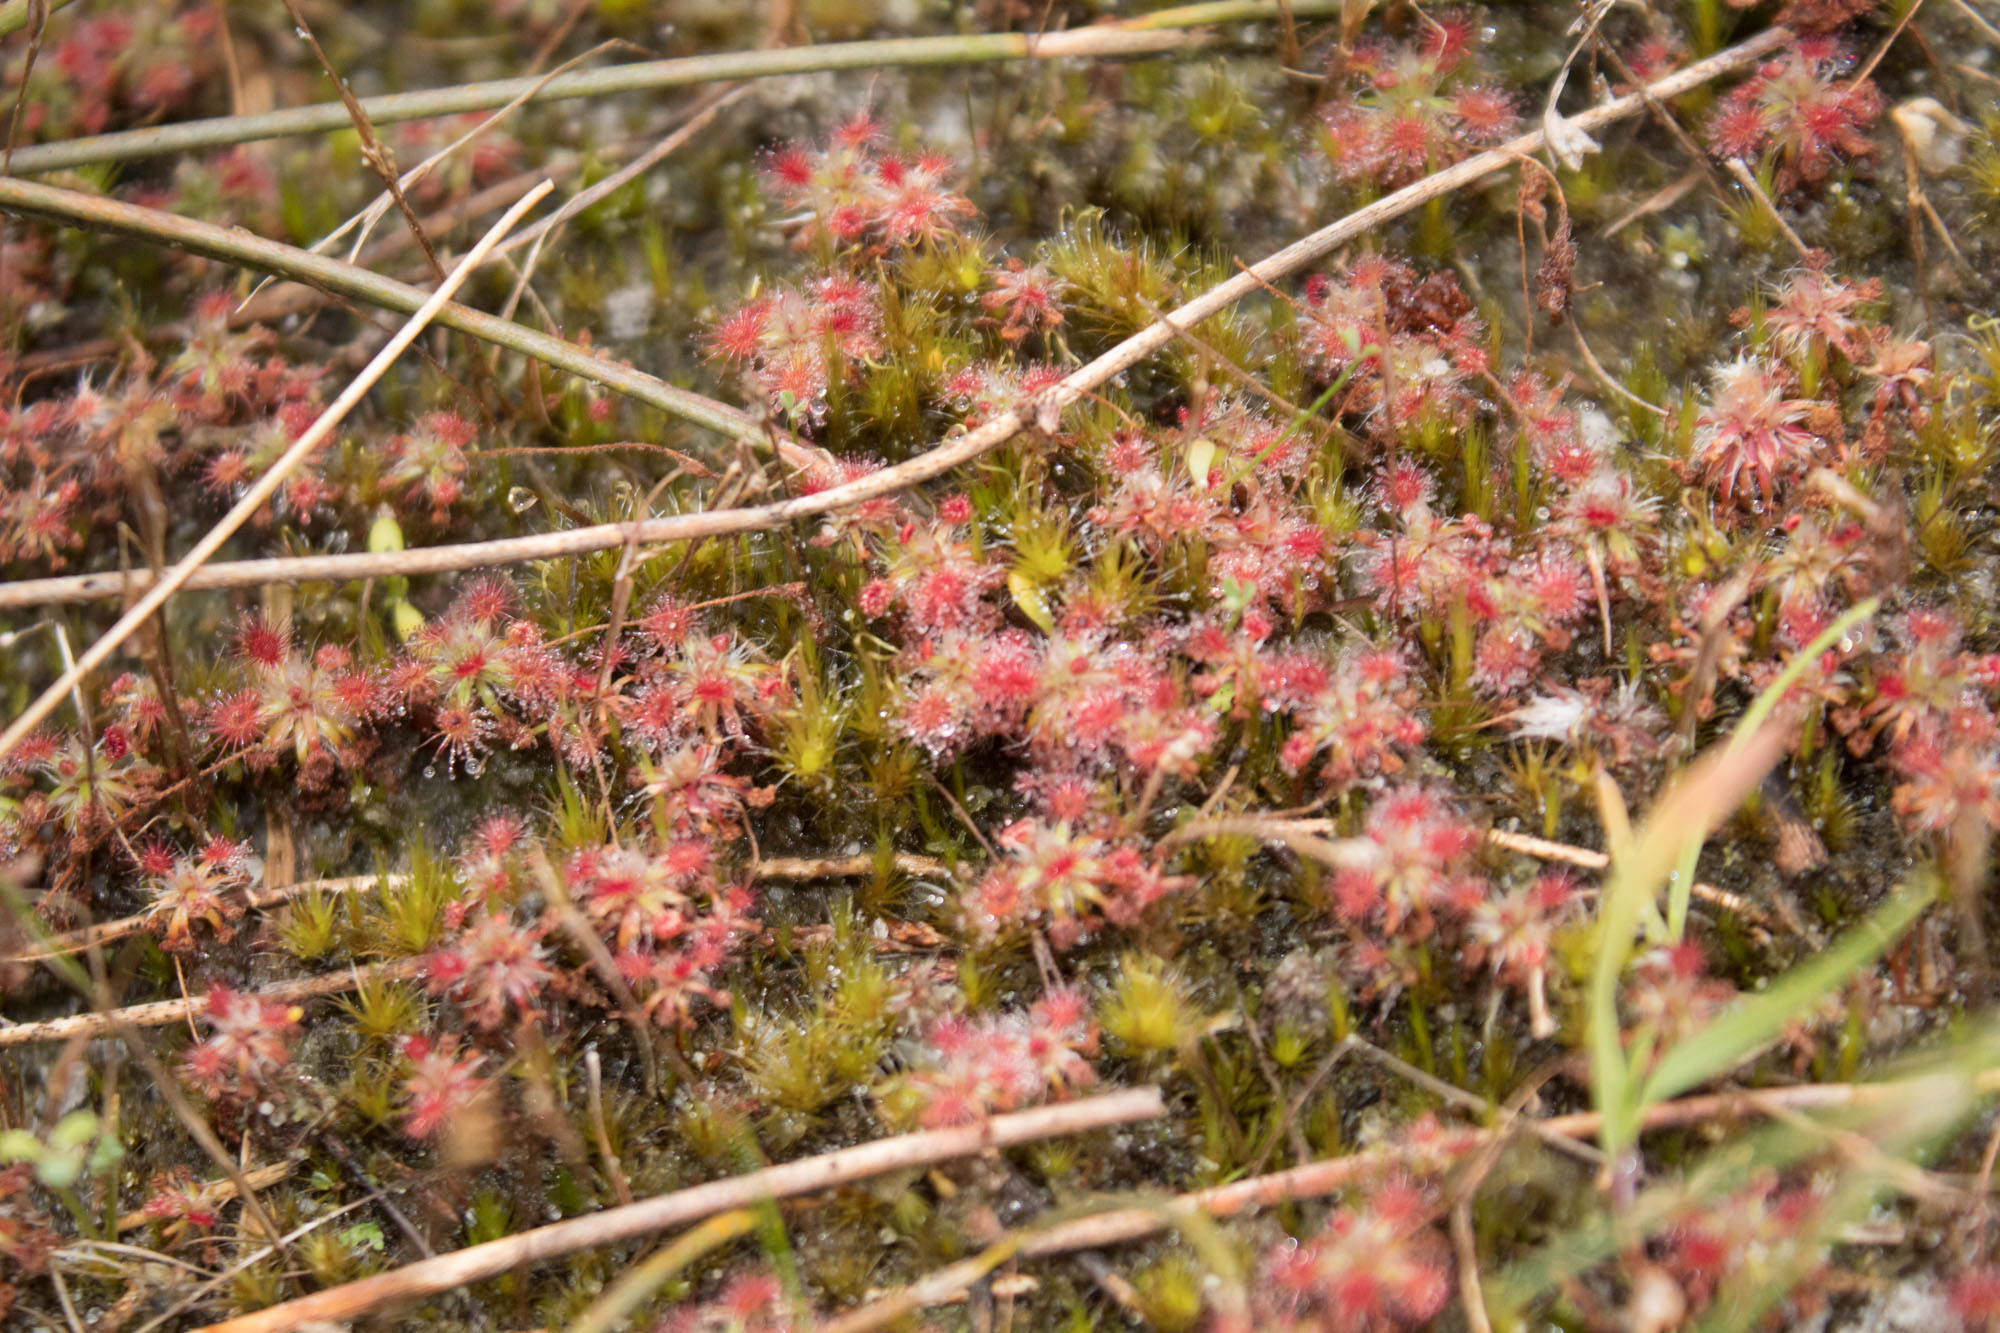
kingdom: Plantae
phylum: Tracheophyta
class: Magnoliopsida
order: Caryophyllales
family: Droseraceae
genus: Drosera
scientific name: Drosera paleacea
